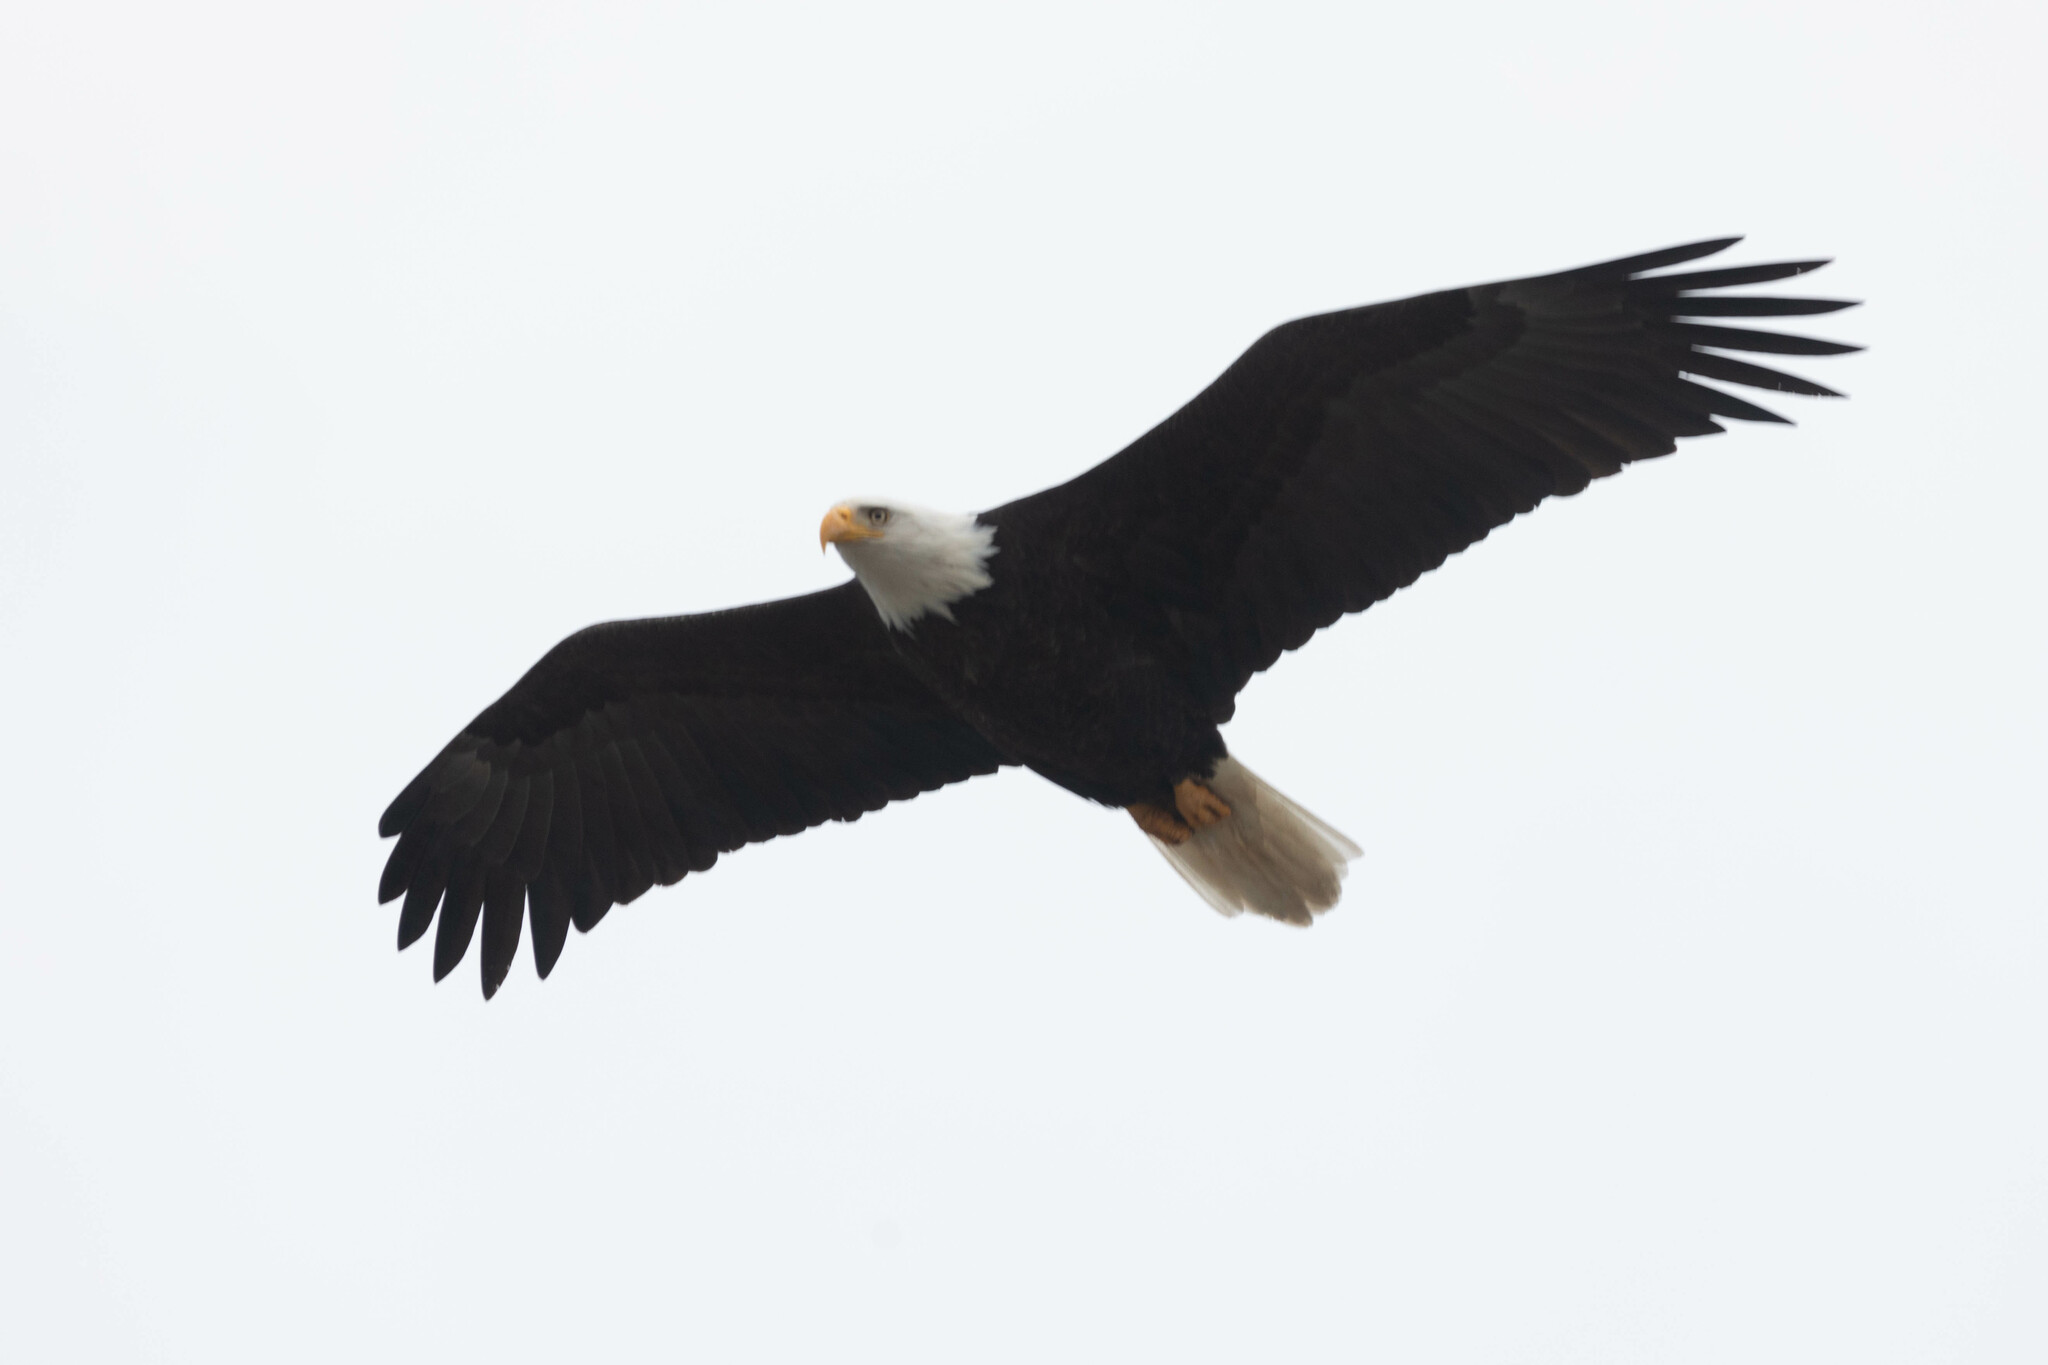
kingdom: Animalia
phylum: Chordata
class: Aves
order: Accipitriformes
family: Accipitridae
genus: Haliaeetus
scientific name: Haliaeetus leucocephalus
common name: Bald eagle
